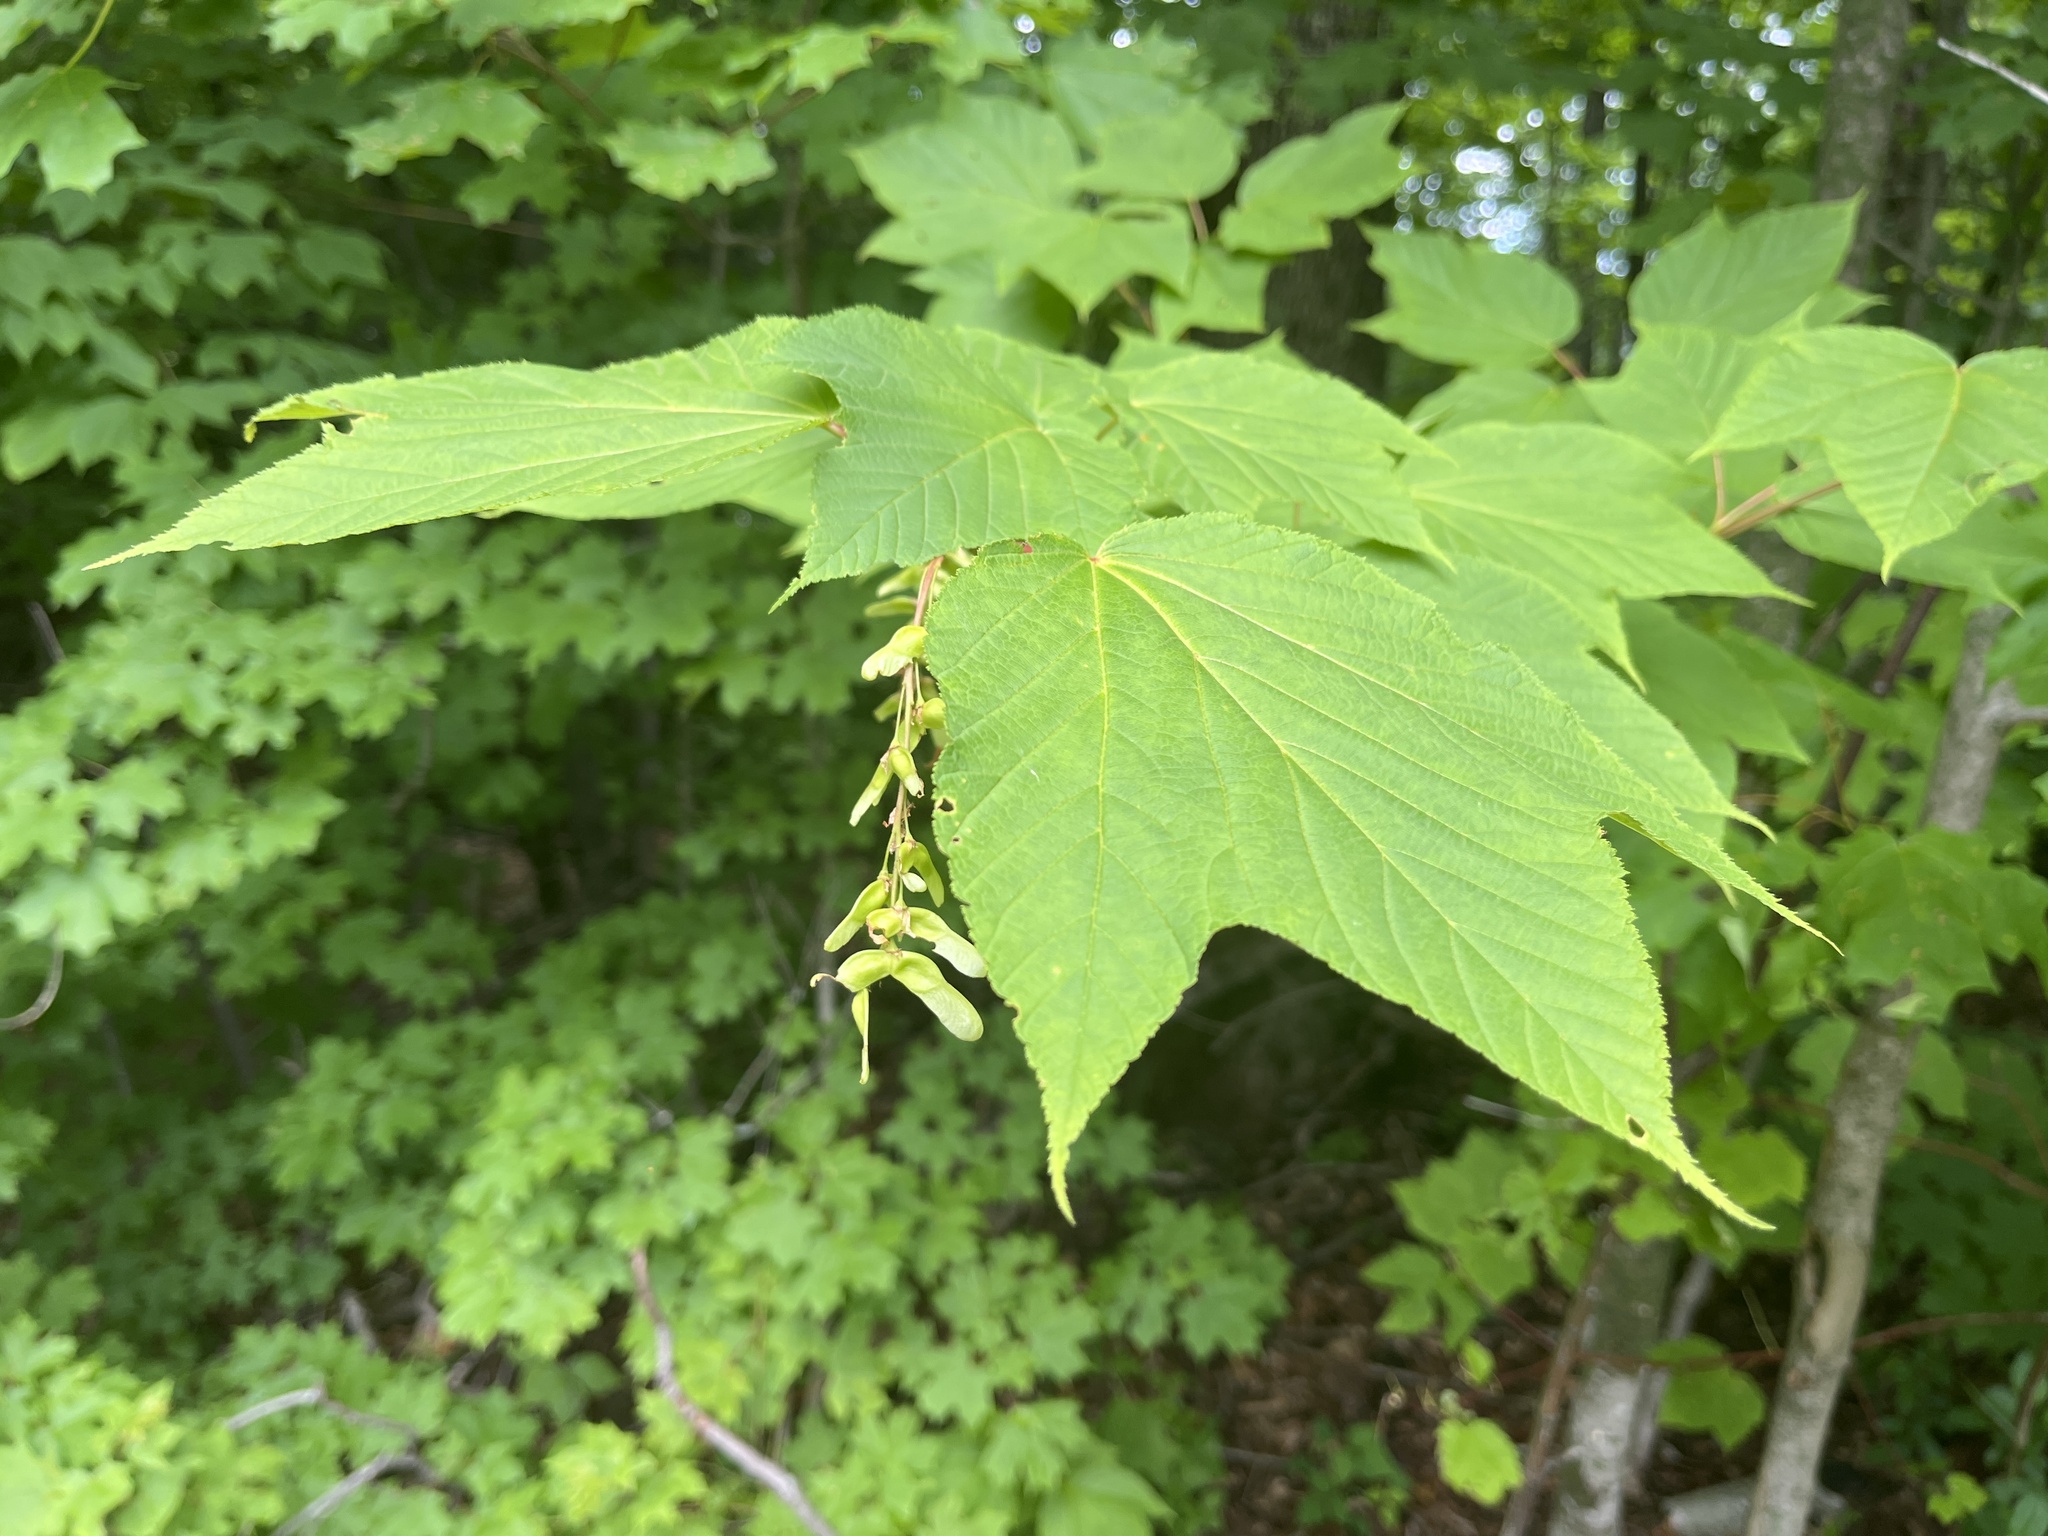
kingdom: Plantae
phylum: Tracheophyta
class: Magnoliopsida
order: Sapindales
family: Sapindaceae
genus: Acer
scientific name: Acer pensylvanicum
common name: Moosewood
